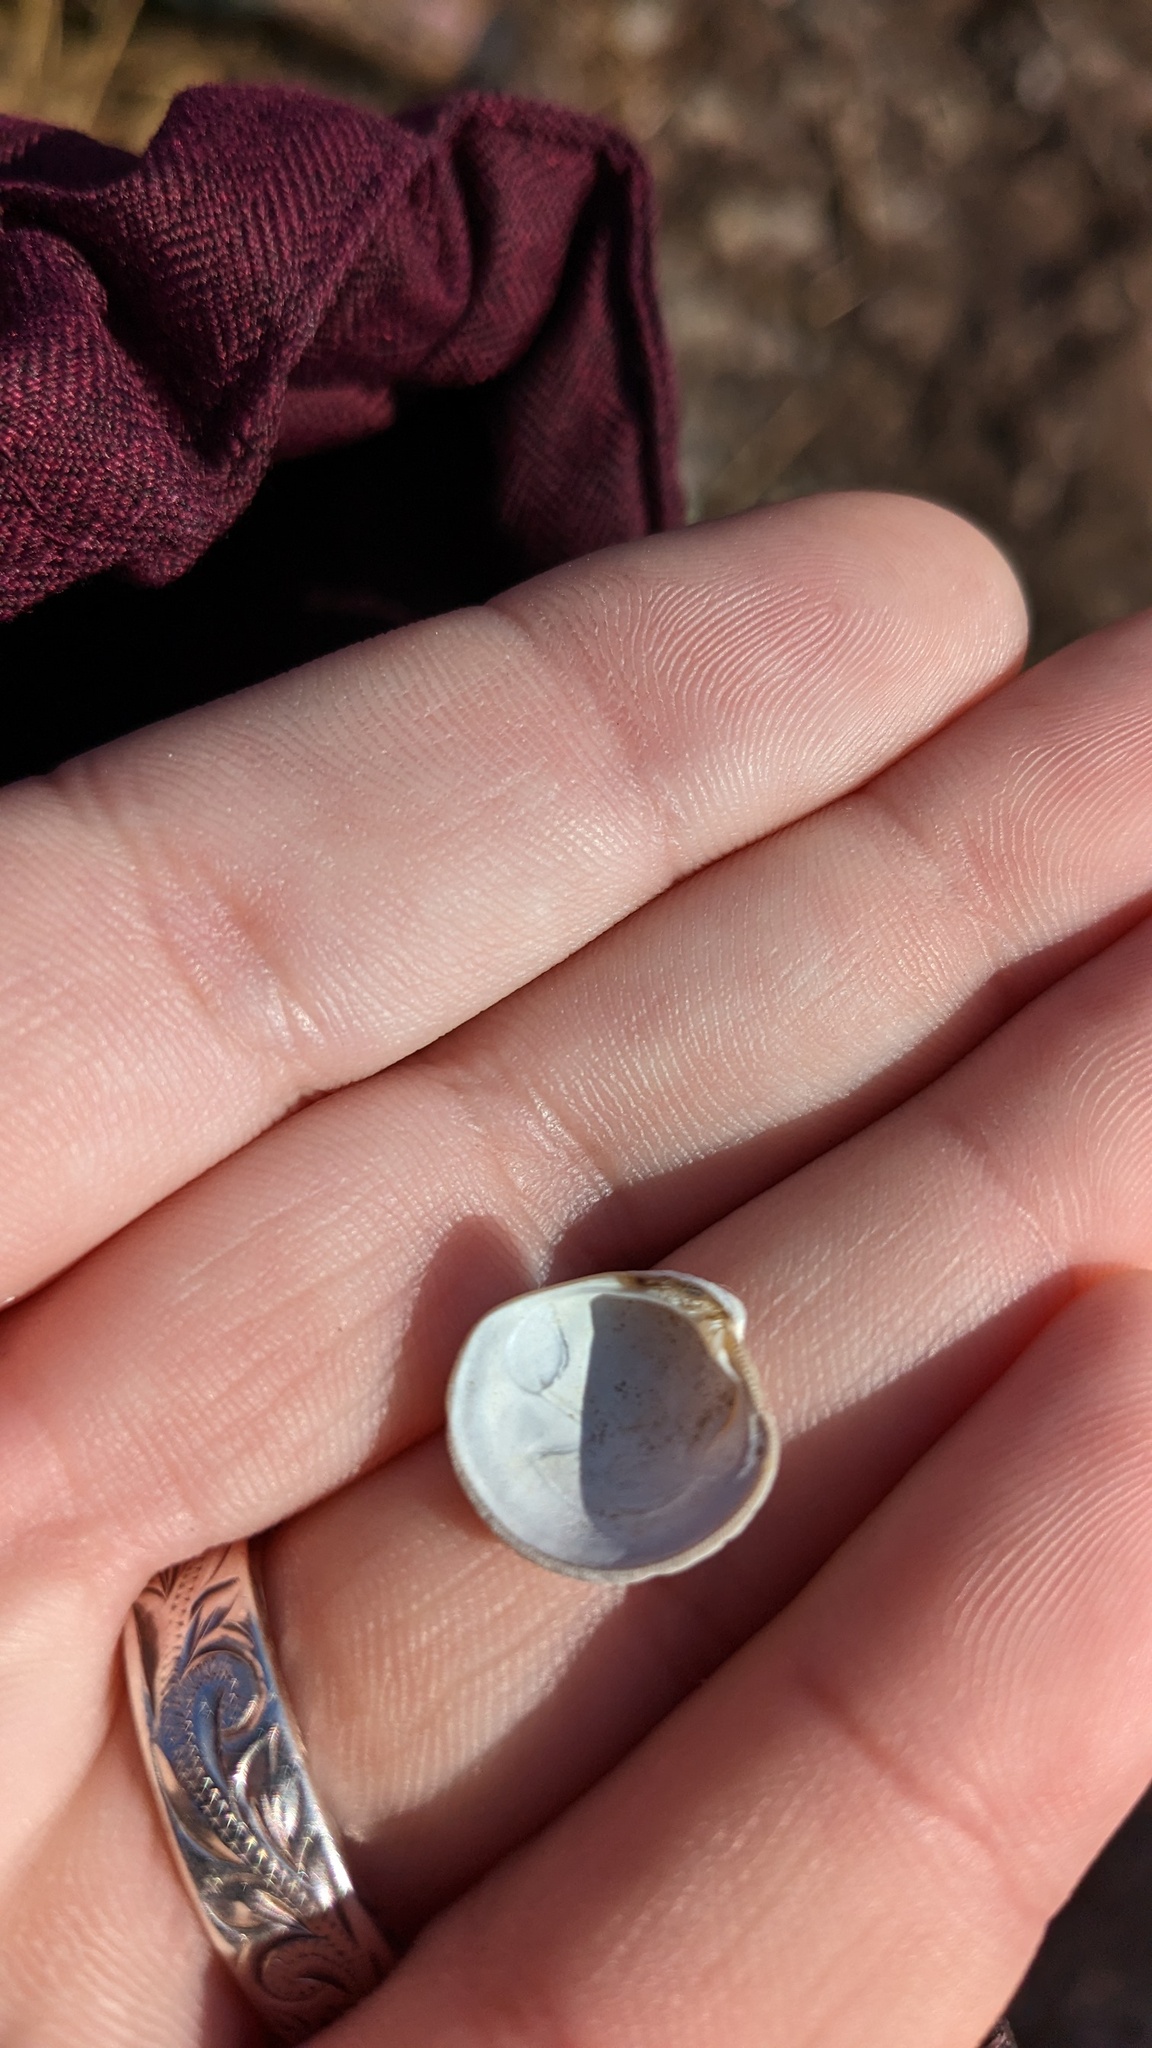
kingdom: Animalia
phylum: Mollusca
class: Bivalvia
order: Venerida
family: Veneridae
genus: Mercenaria
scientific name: Mercenaria mercenaria
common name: American hard-shelled clam
